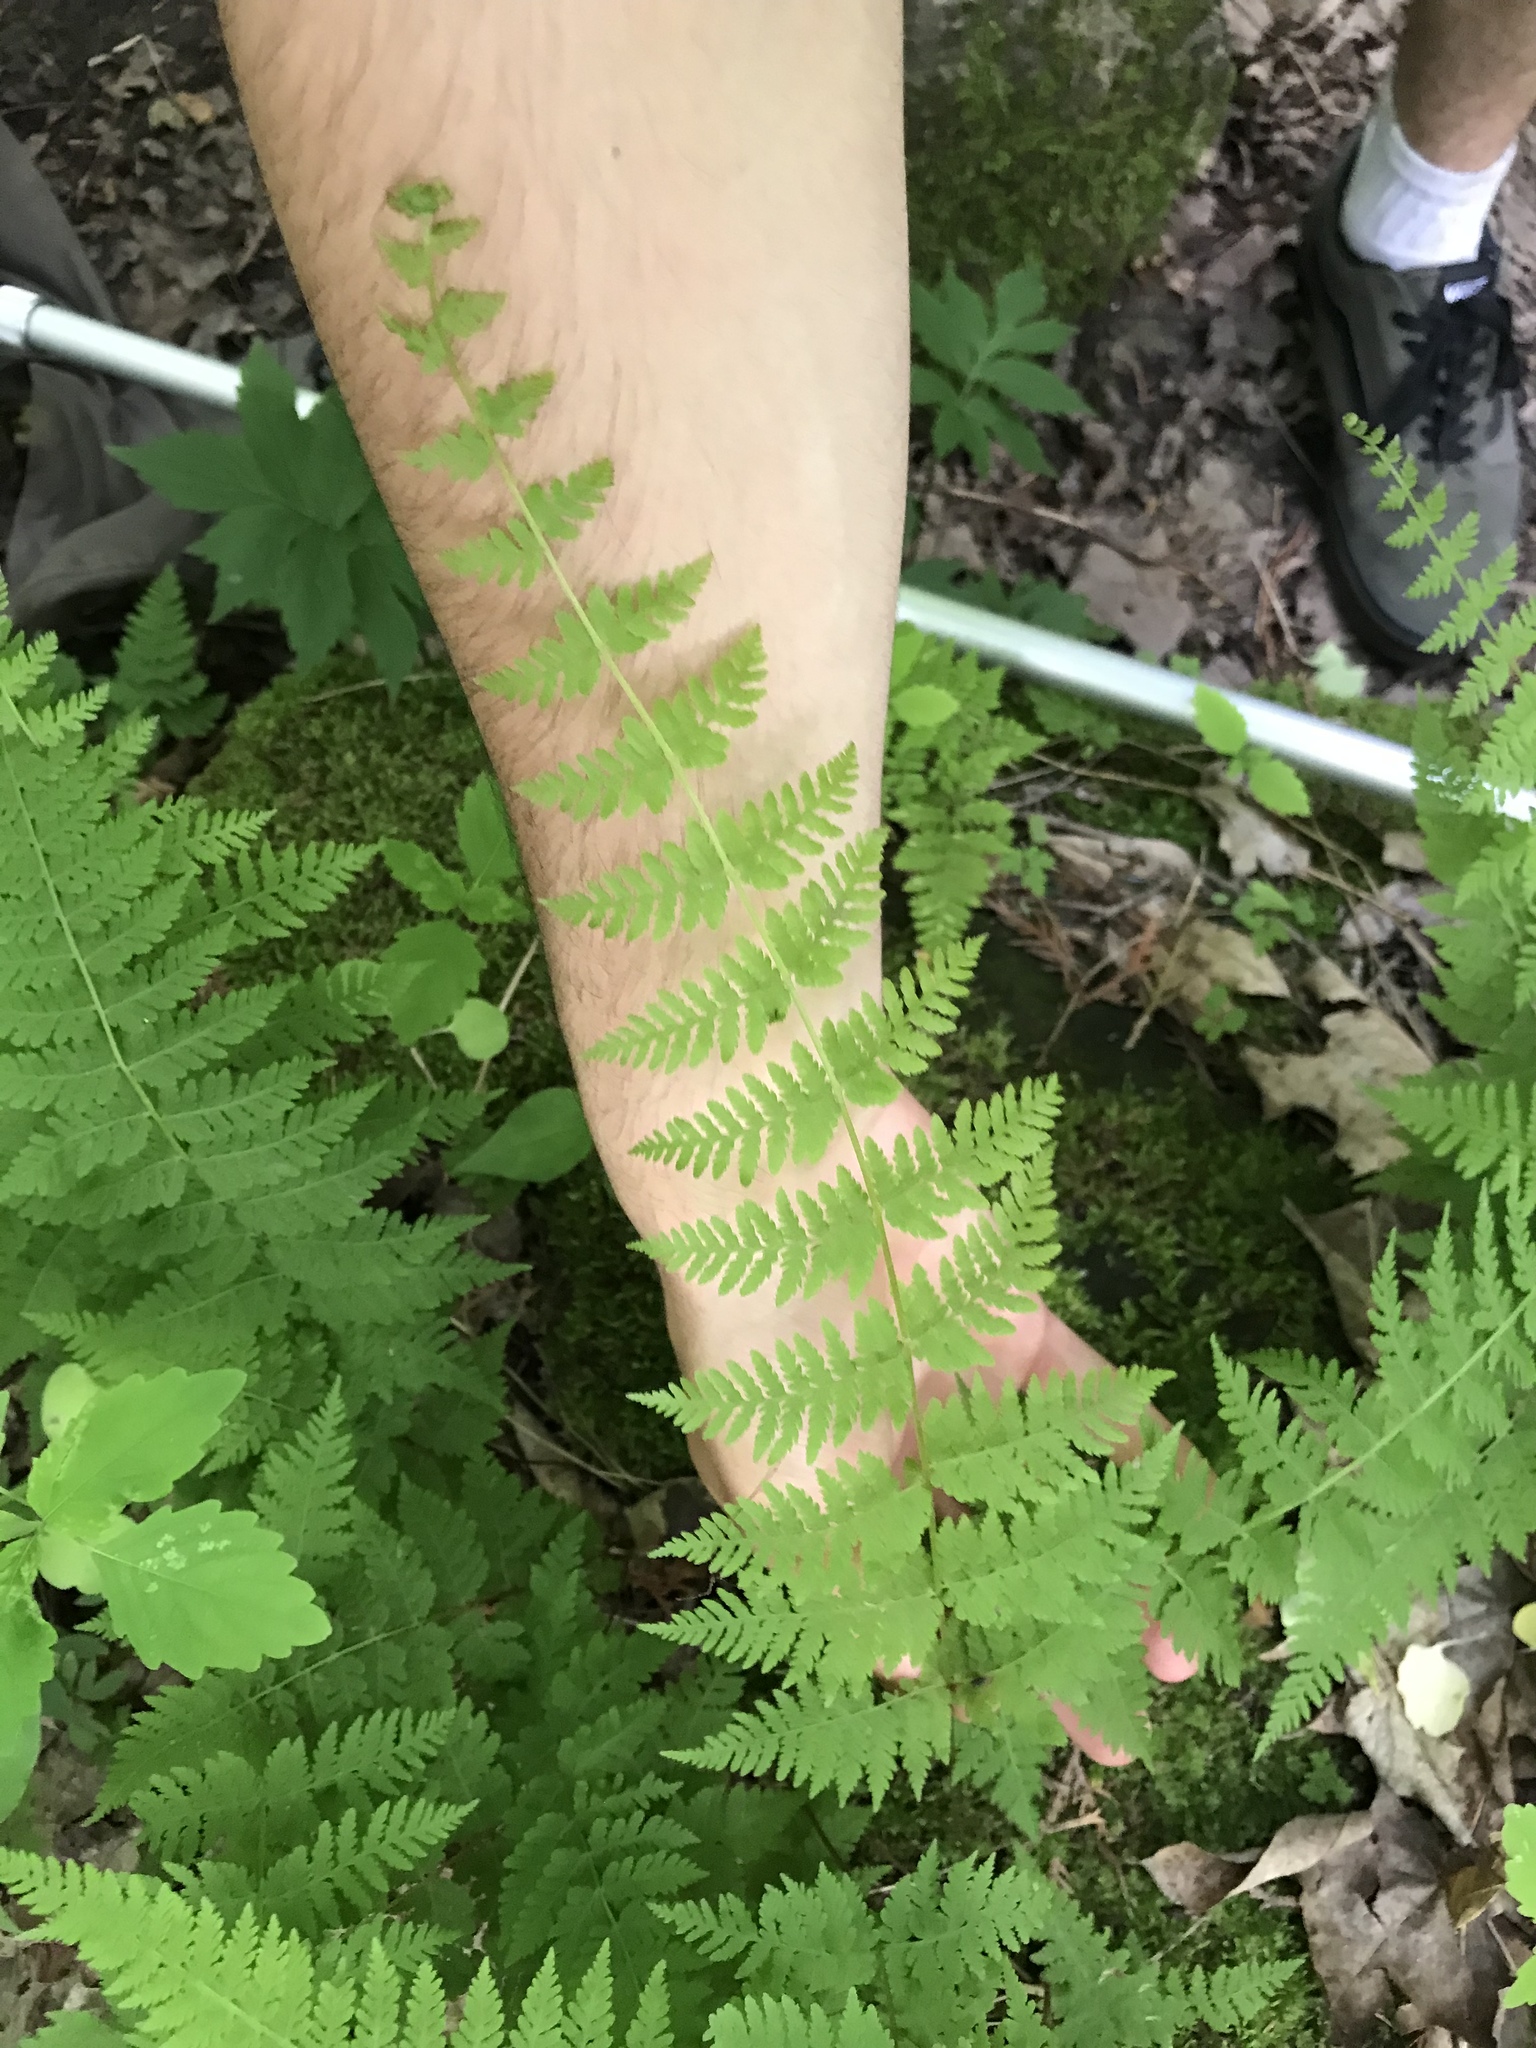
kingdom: Plantae
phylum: Tracheophyta
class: Polypodiopsida
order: Polypodiales
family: Cystopteridaceae
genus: Cystopteris
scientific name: Cystopteris bulbifera
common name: Bulblet bladder fern
